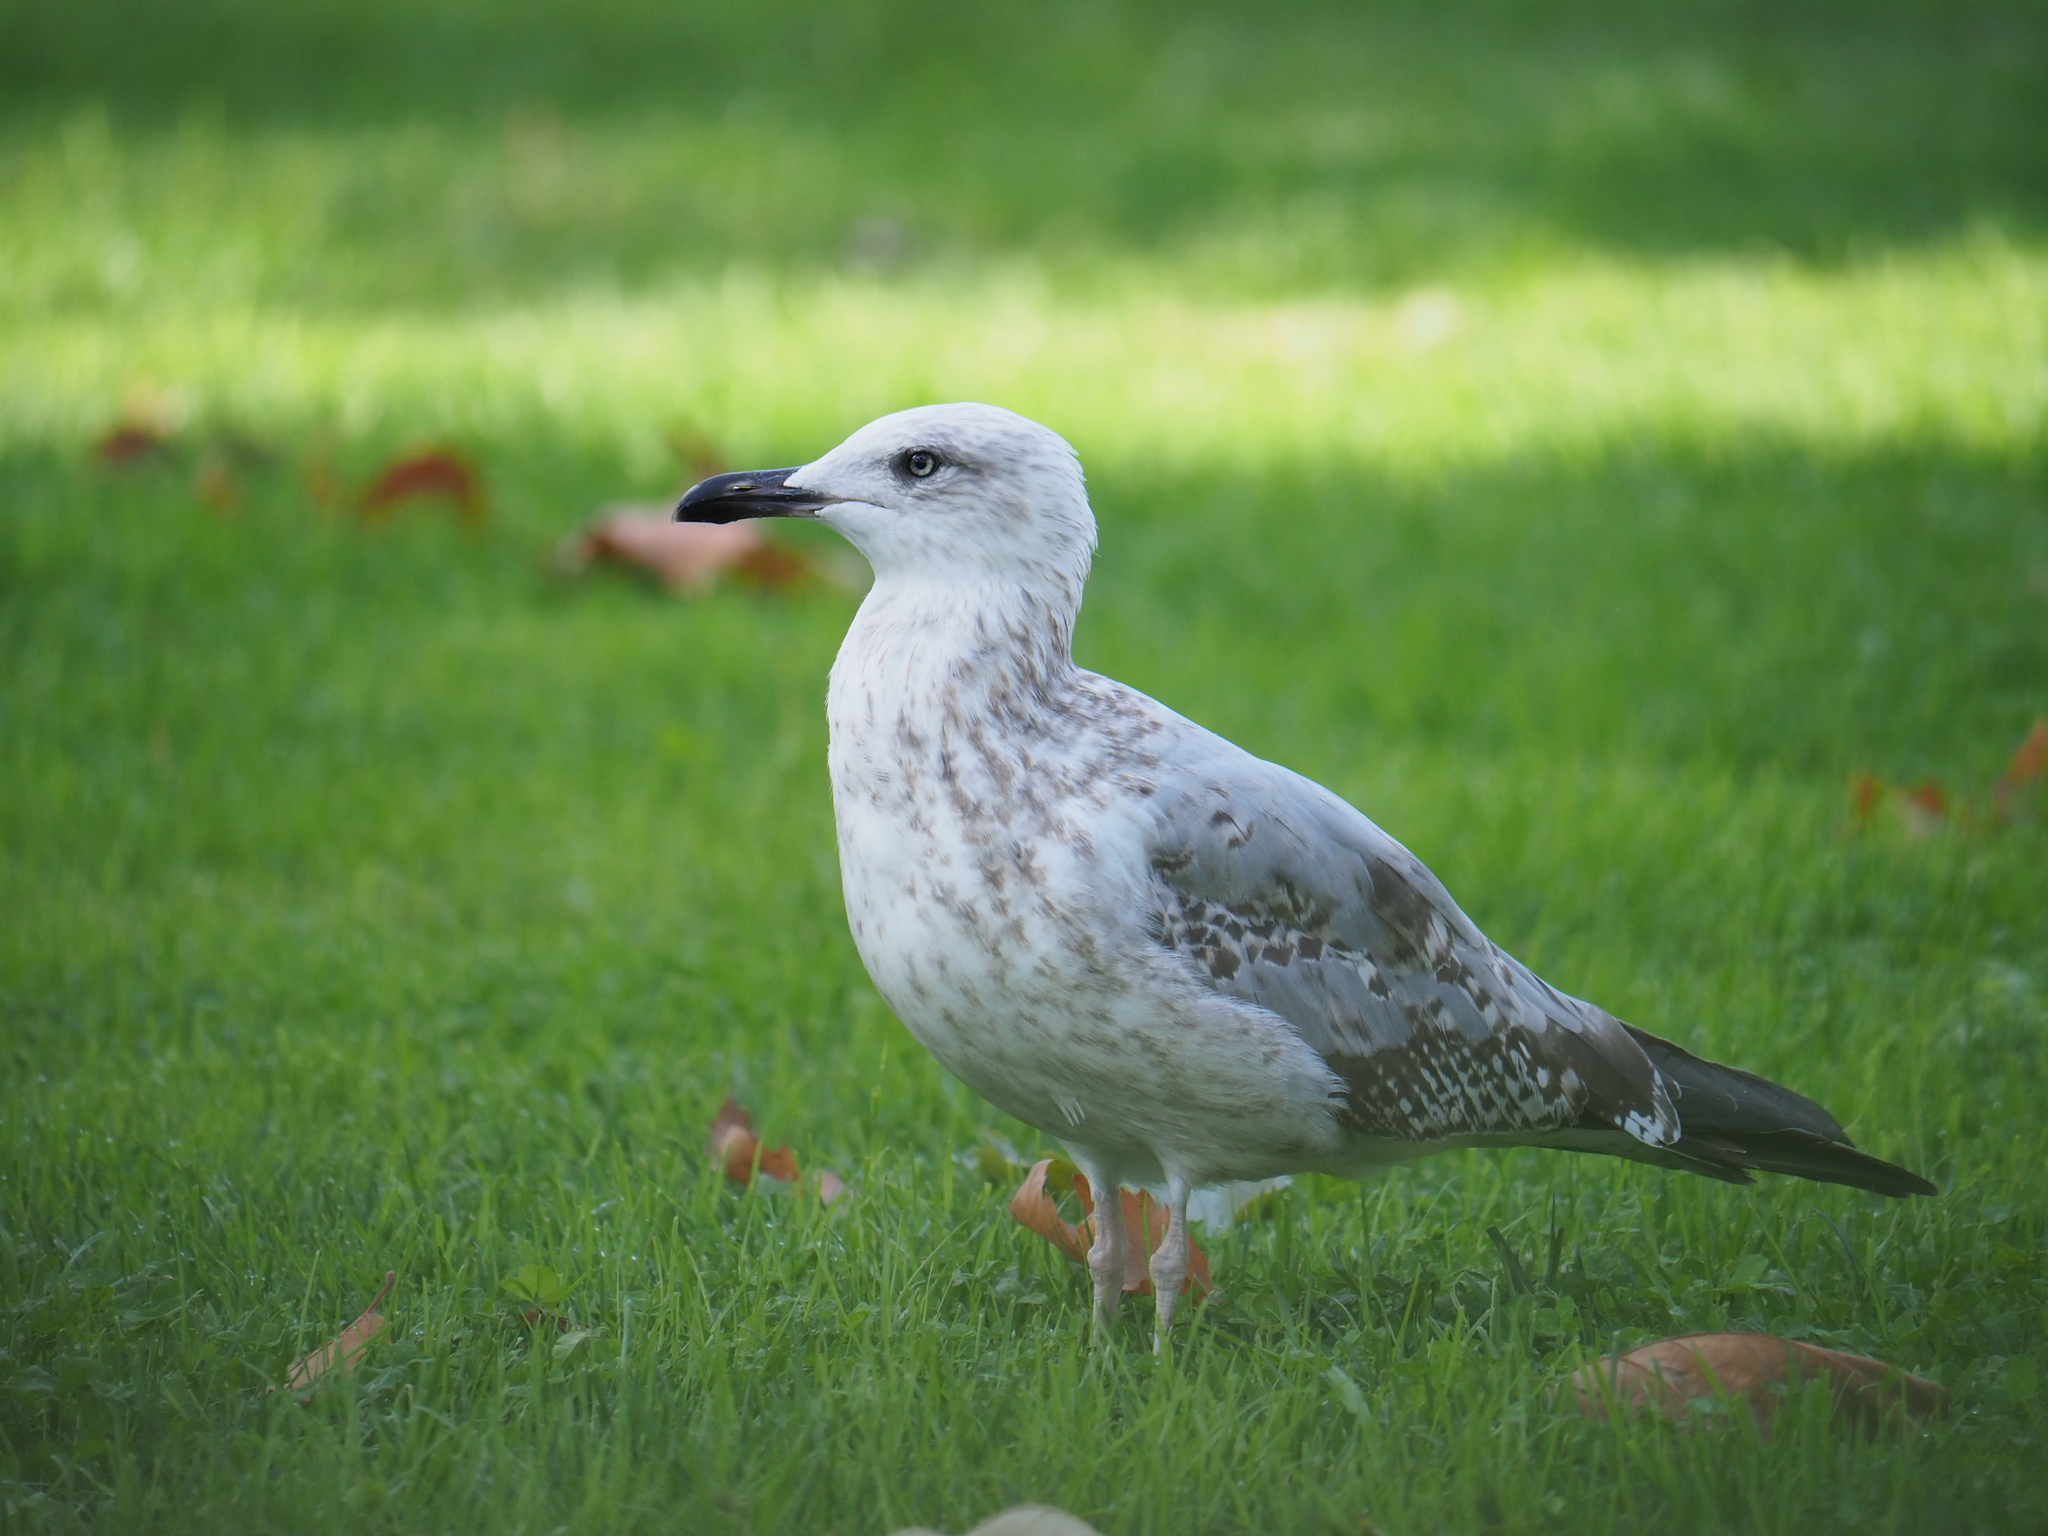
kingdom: Animalia
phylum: Chordata
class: Aves
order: Charadriiformes
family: Laridae
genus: Larus
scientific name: Larus michahellis
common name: Yellow-legged gull
